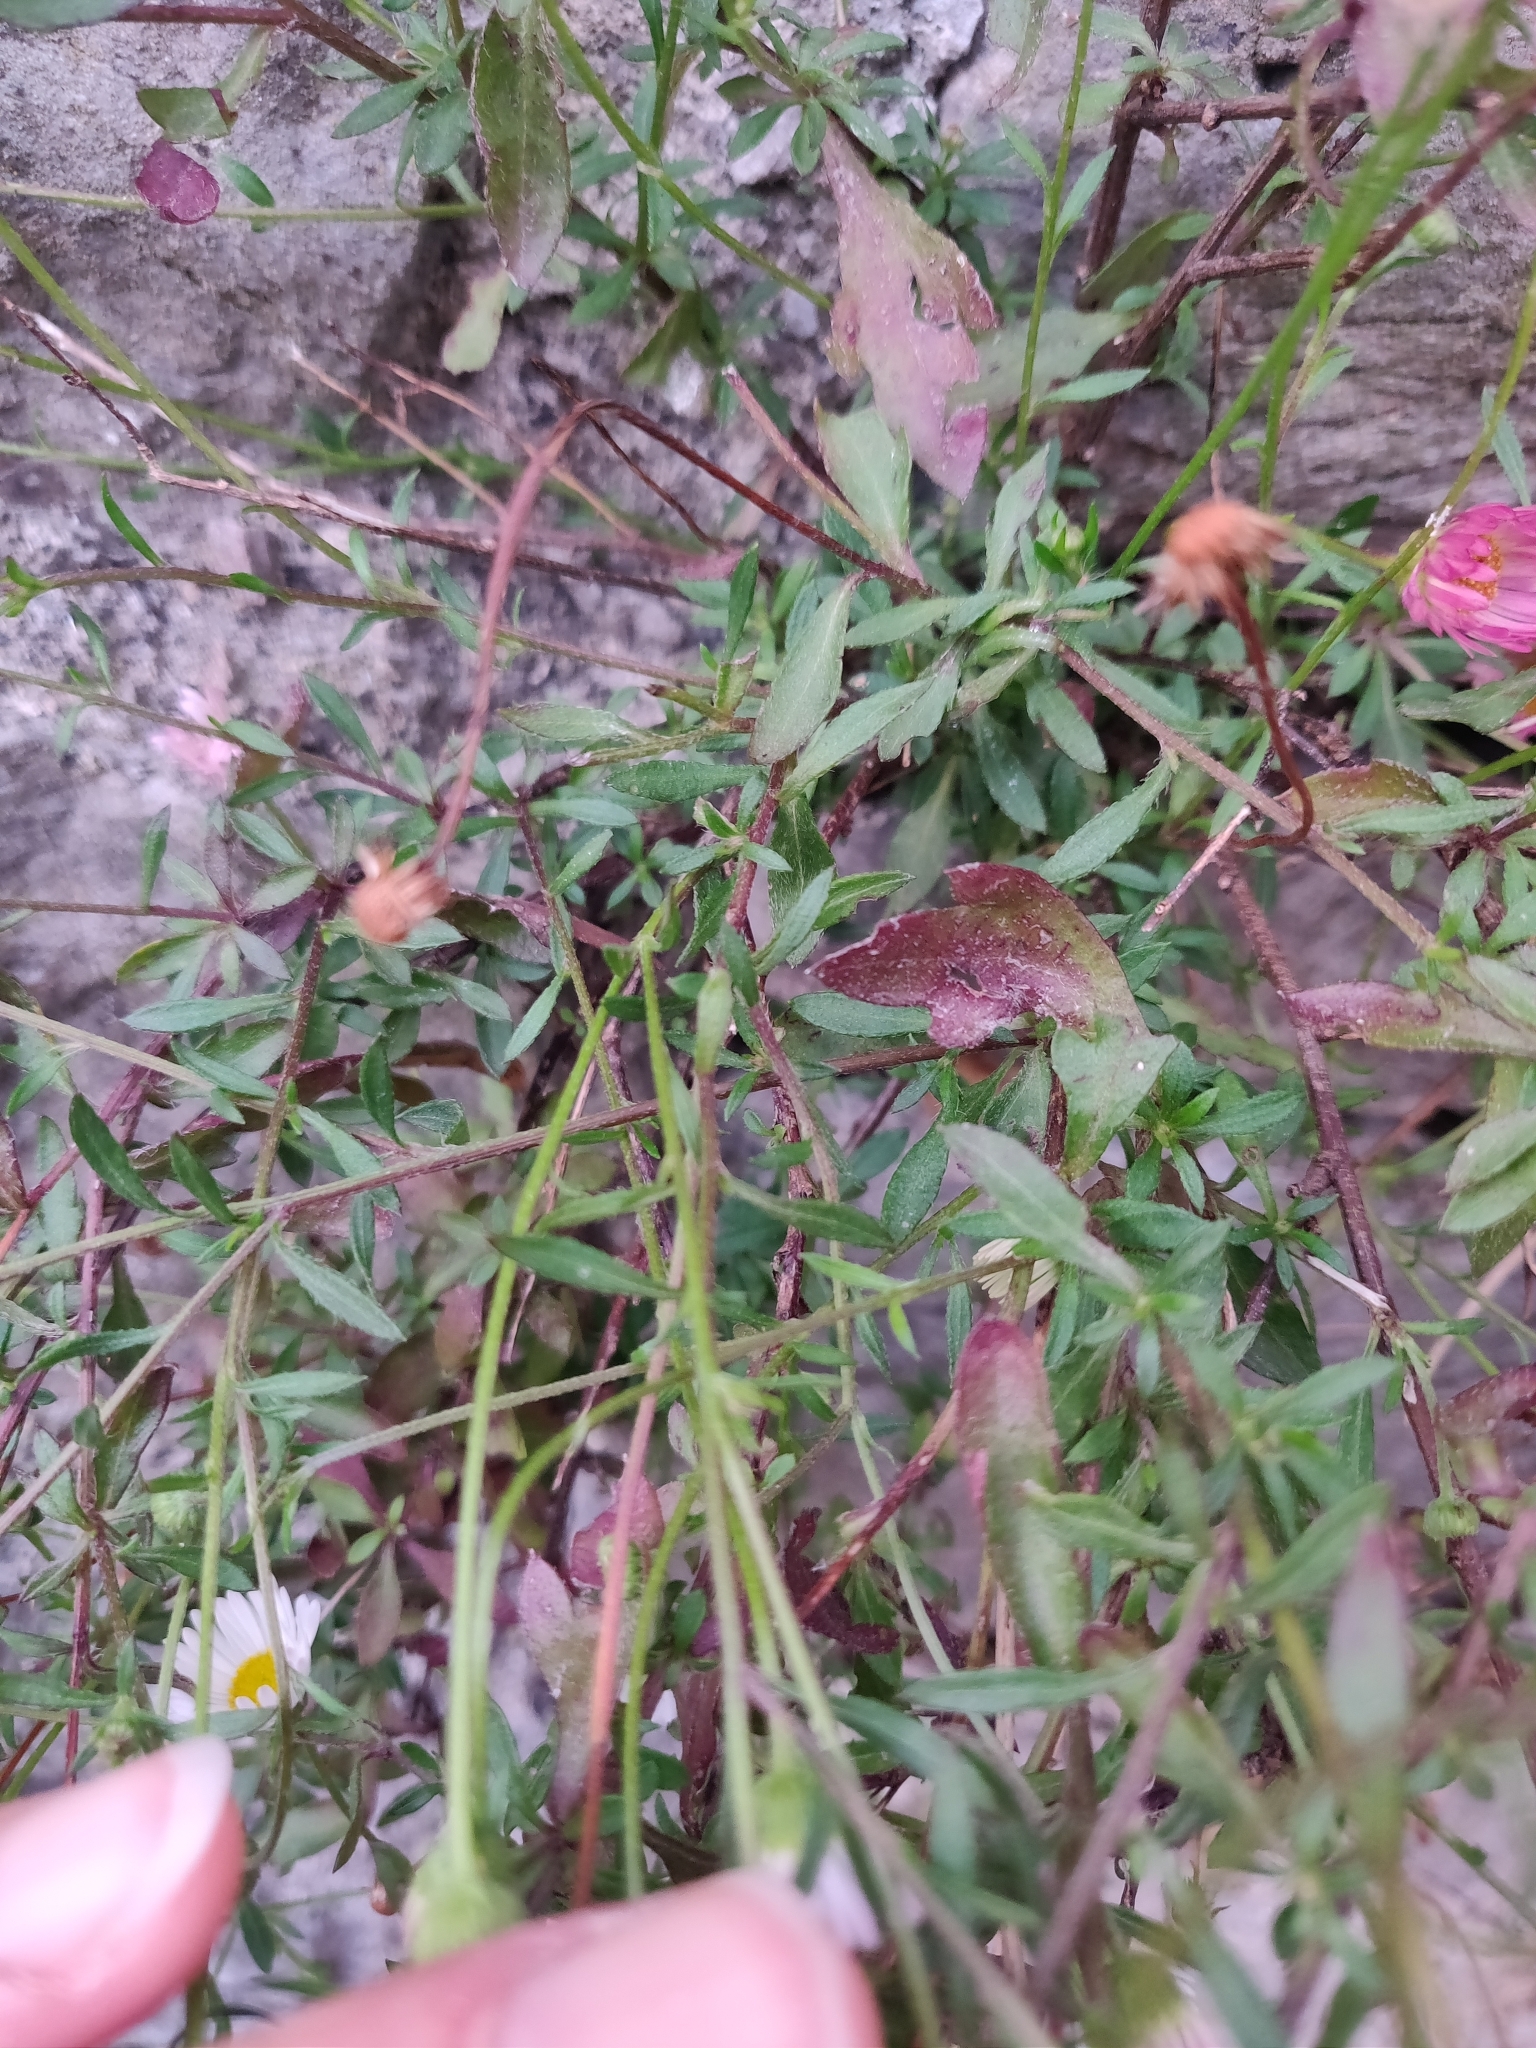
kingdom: Plantae
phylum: Tracheophyta
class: Magnoliopsida
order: Asterales
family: Asteraceae
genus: Erigeron
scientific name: Erigeron karvinskianus
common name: Mexican fleabane
